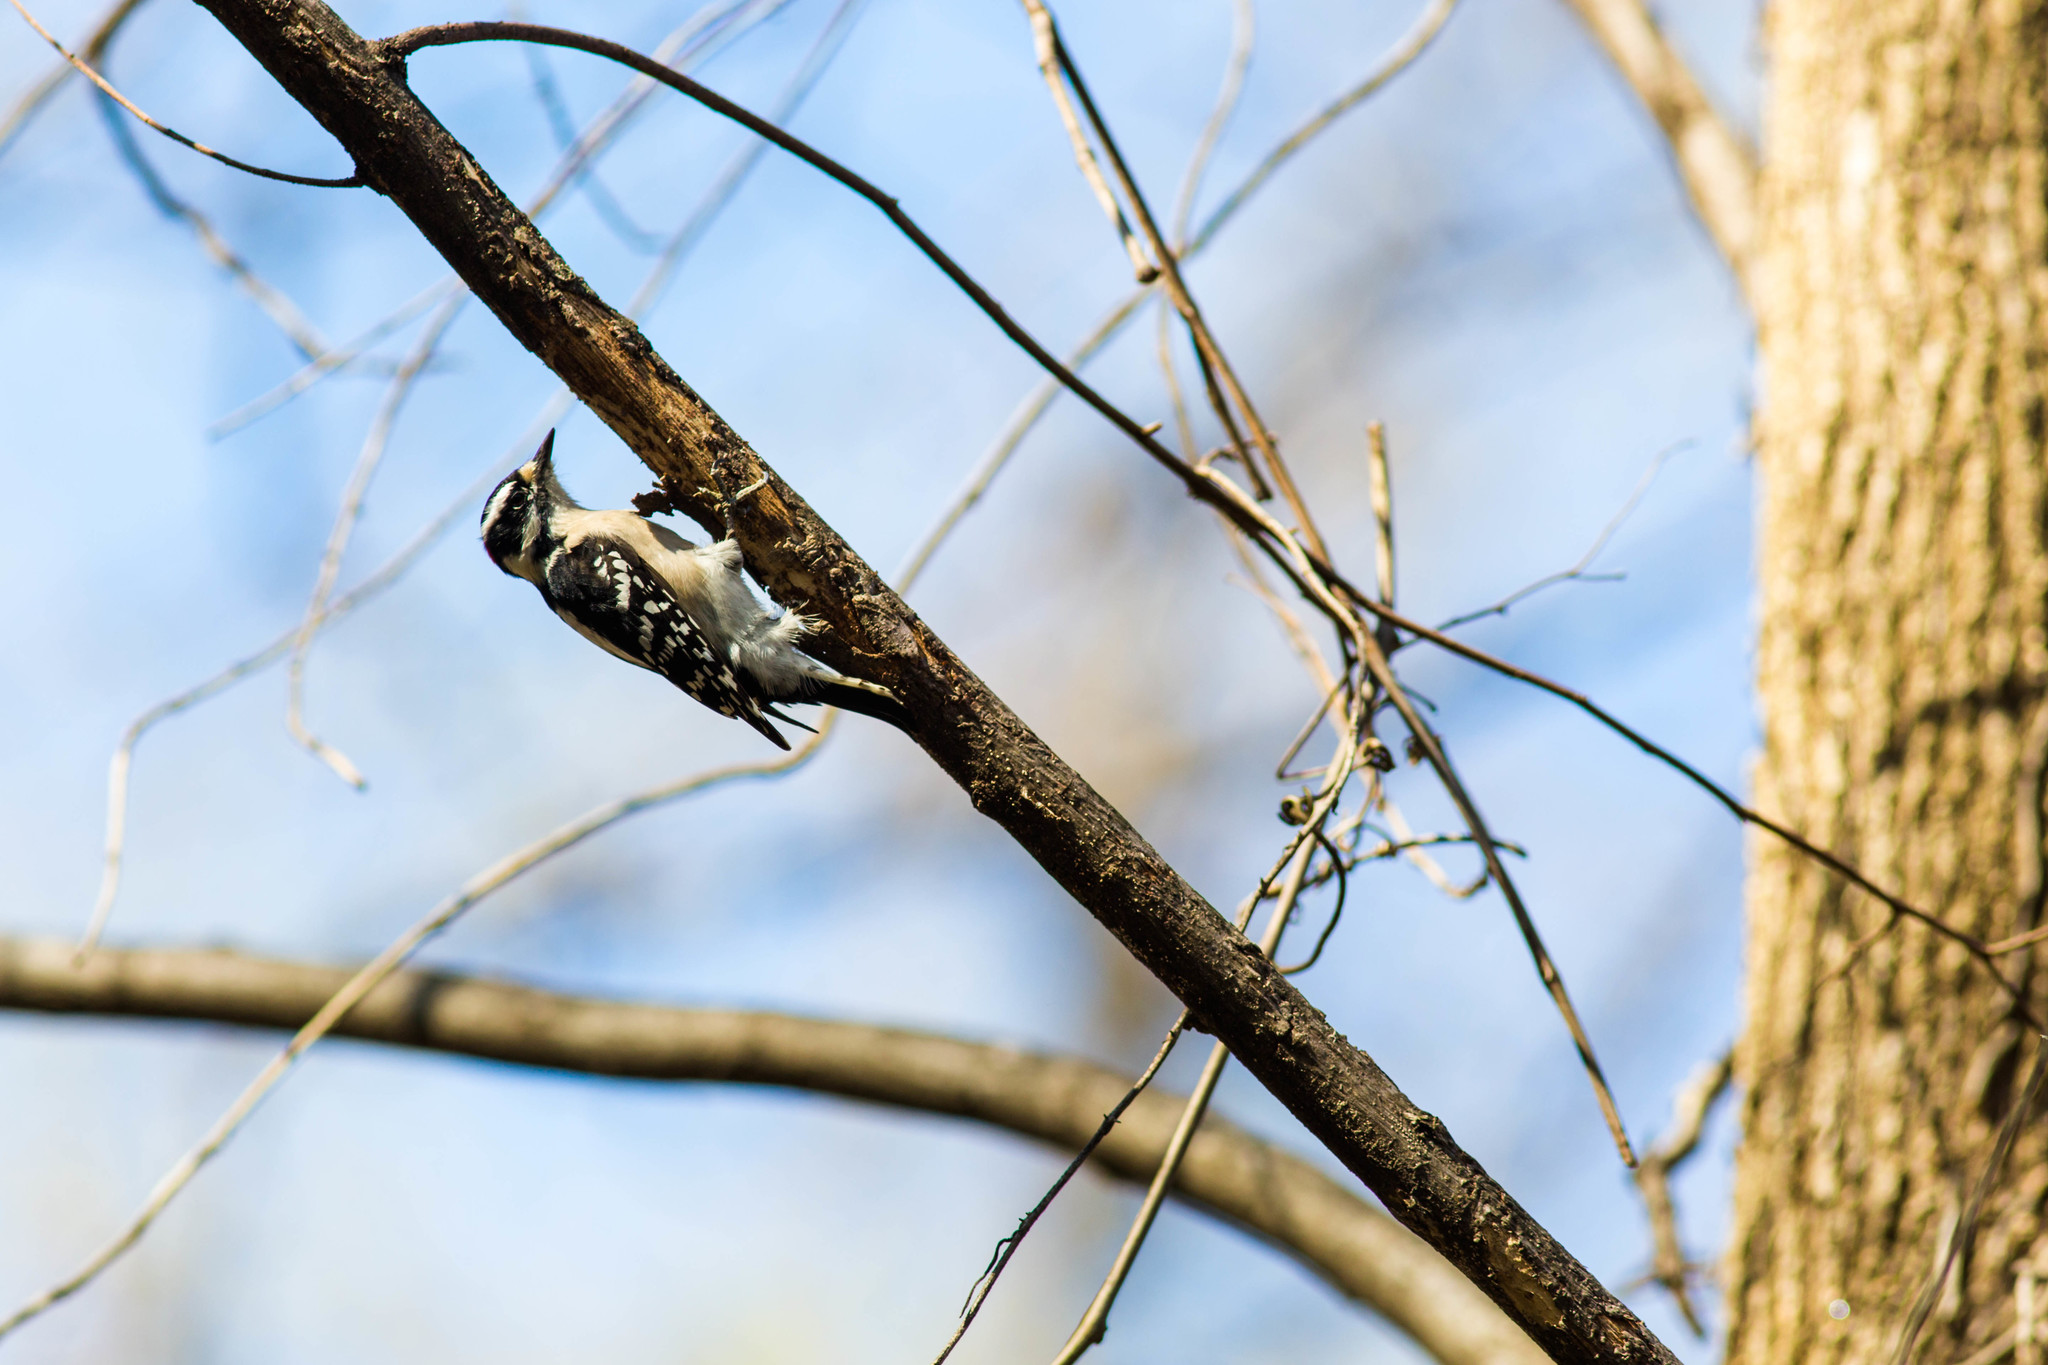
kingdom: Animalia
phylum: Chordata
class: Aves
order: Piciformes
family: Picidae
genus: Dryobates
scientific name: Dryobates pubescens
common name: Downy woodpecker
